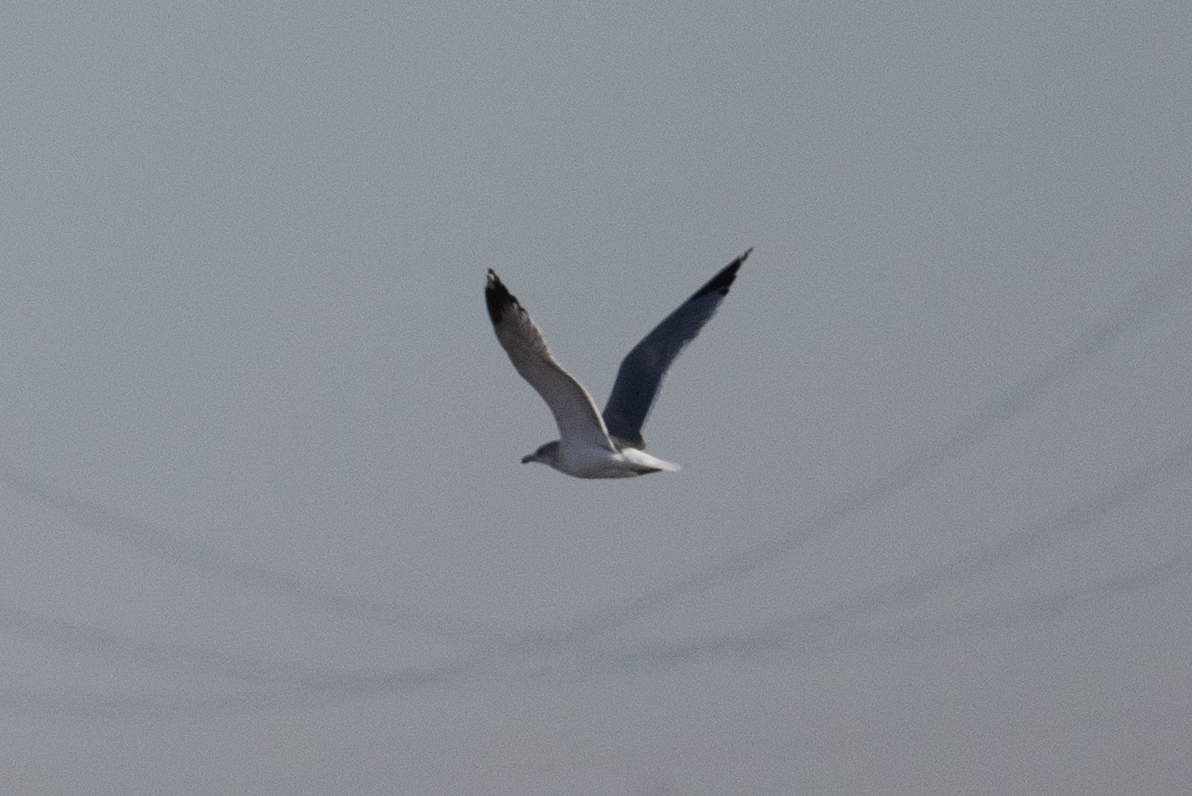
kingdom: Animalia
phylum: Chordata
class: Aves
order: Charadriiformes
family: Laridae
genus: Larus
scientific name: Larus californicus
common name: California gull
